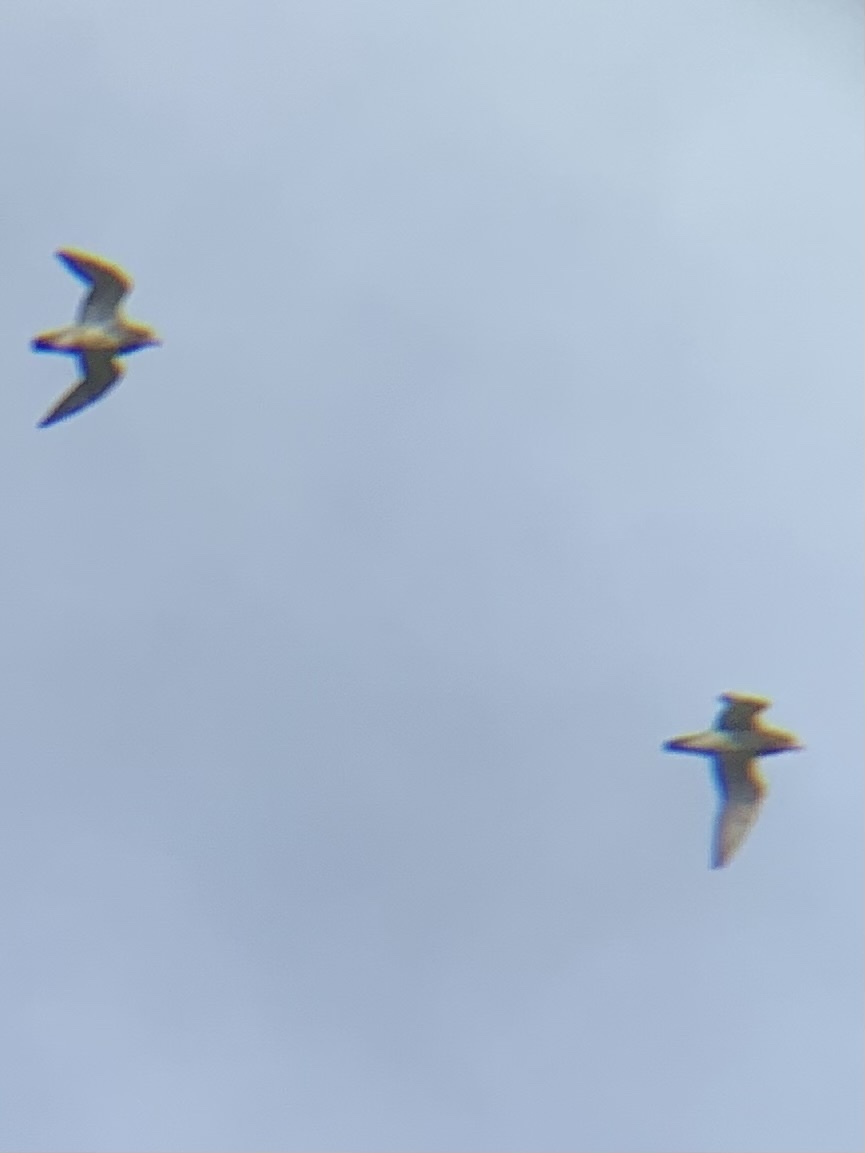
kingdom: Animalia
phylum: Chordata
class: Aves
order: Charadriiformes
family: Charadriidae
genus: Pluvialis
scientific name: Pluvialis apricaria
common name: European golden plover
